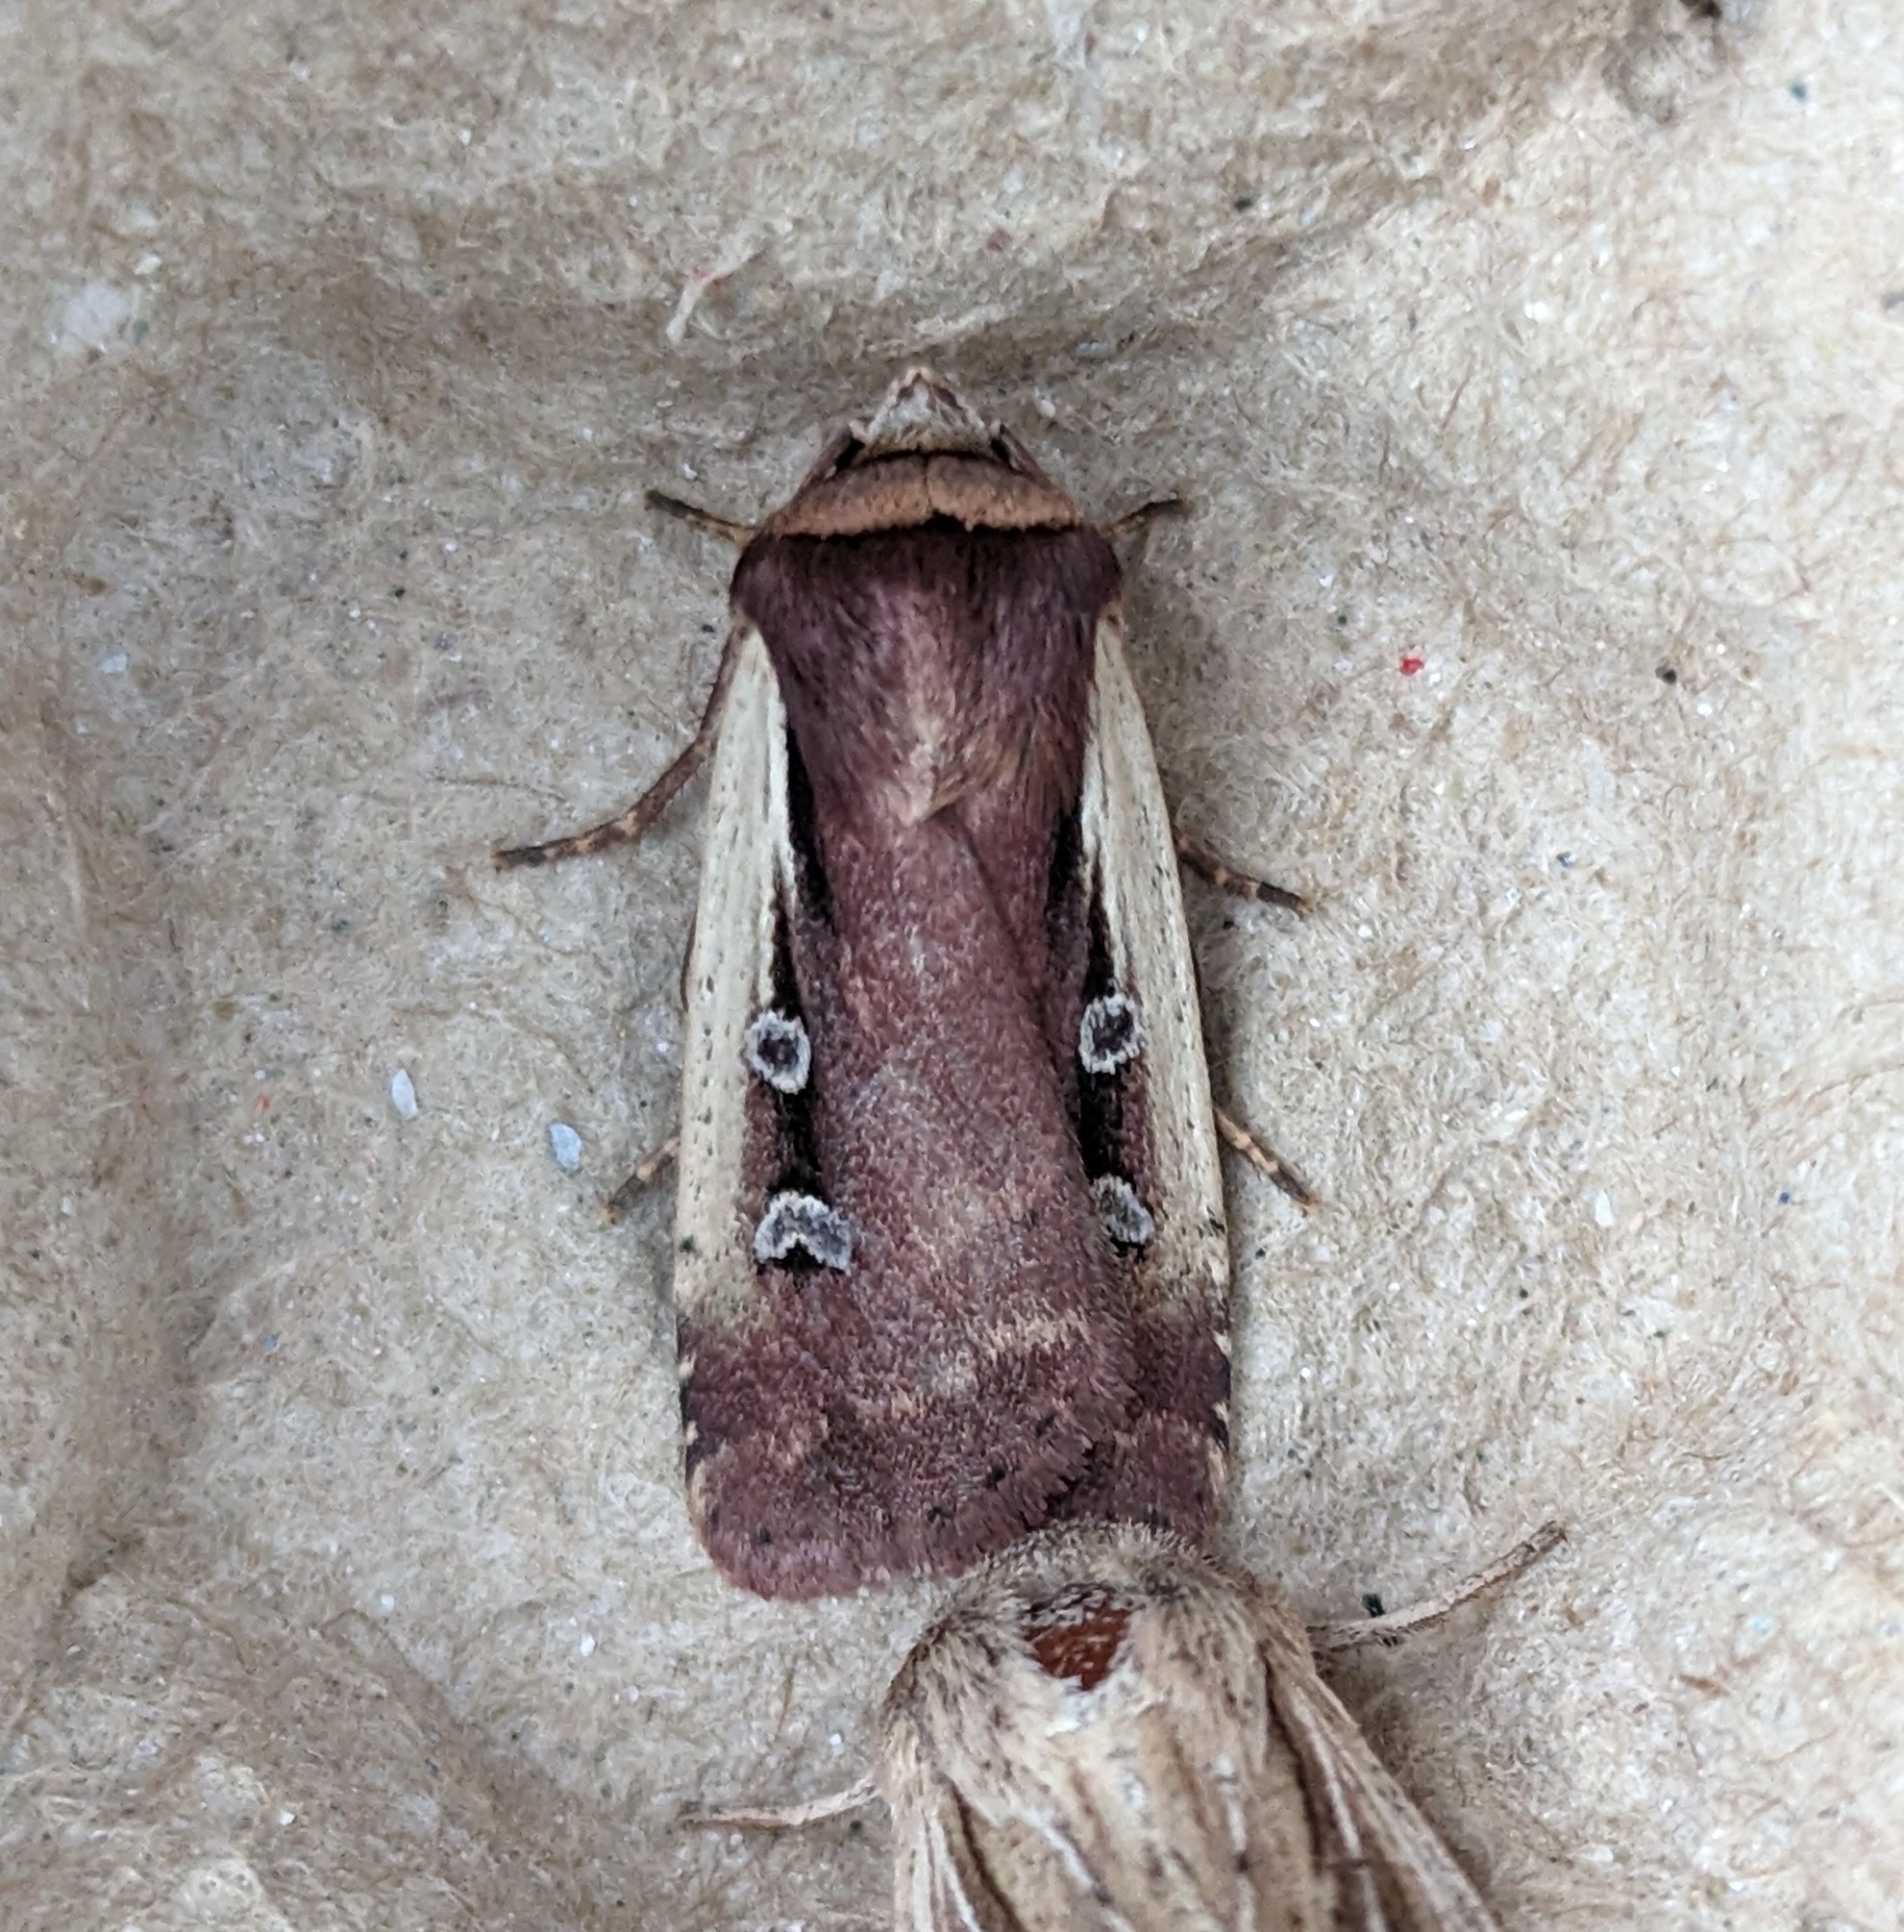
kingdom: Animalia
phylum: Arthropoda
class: Insecta
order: Lepidoptera
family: Noctuidae
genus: Ochropleura
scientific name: Ochropleura implecta
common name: Flame-shouldered dart
